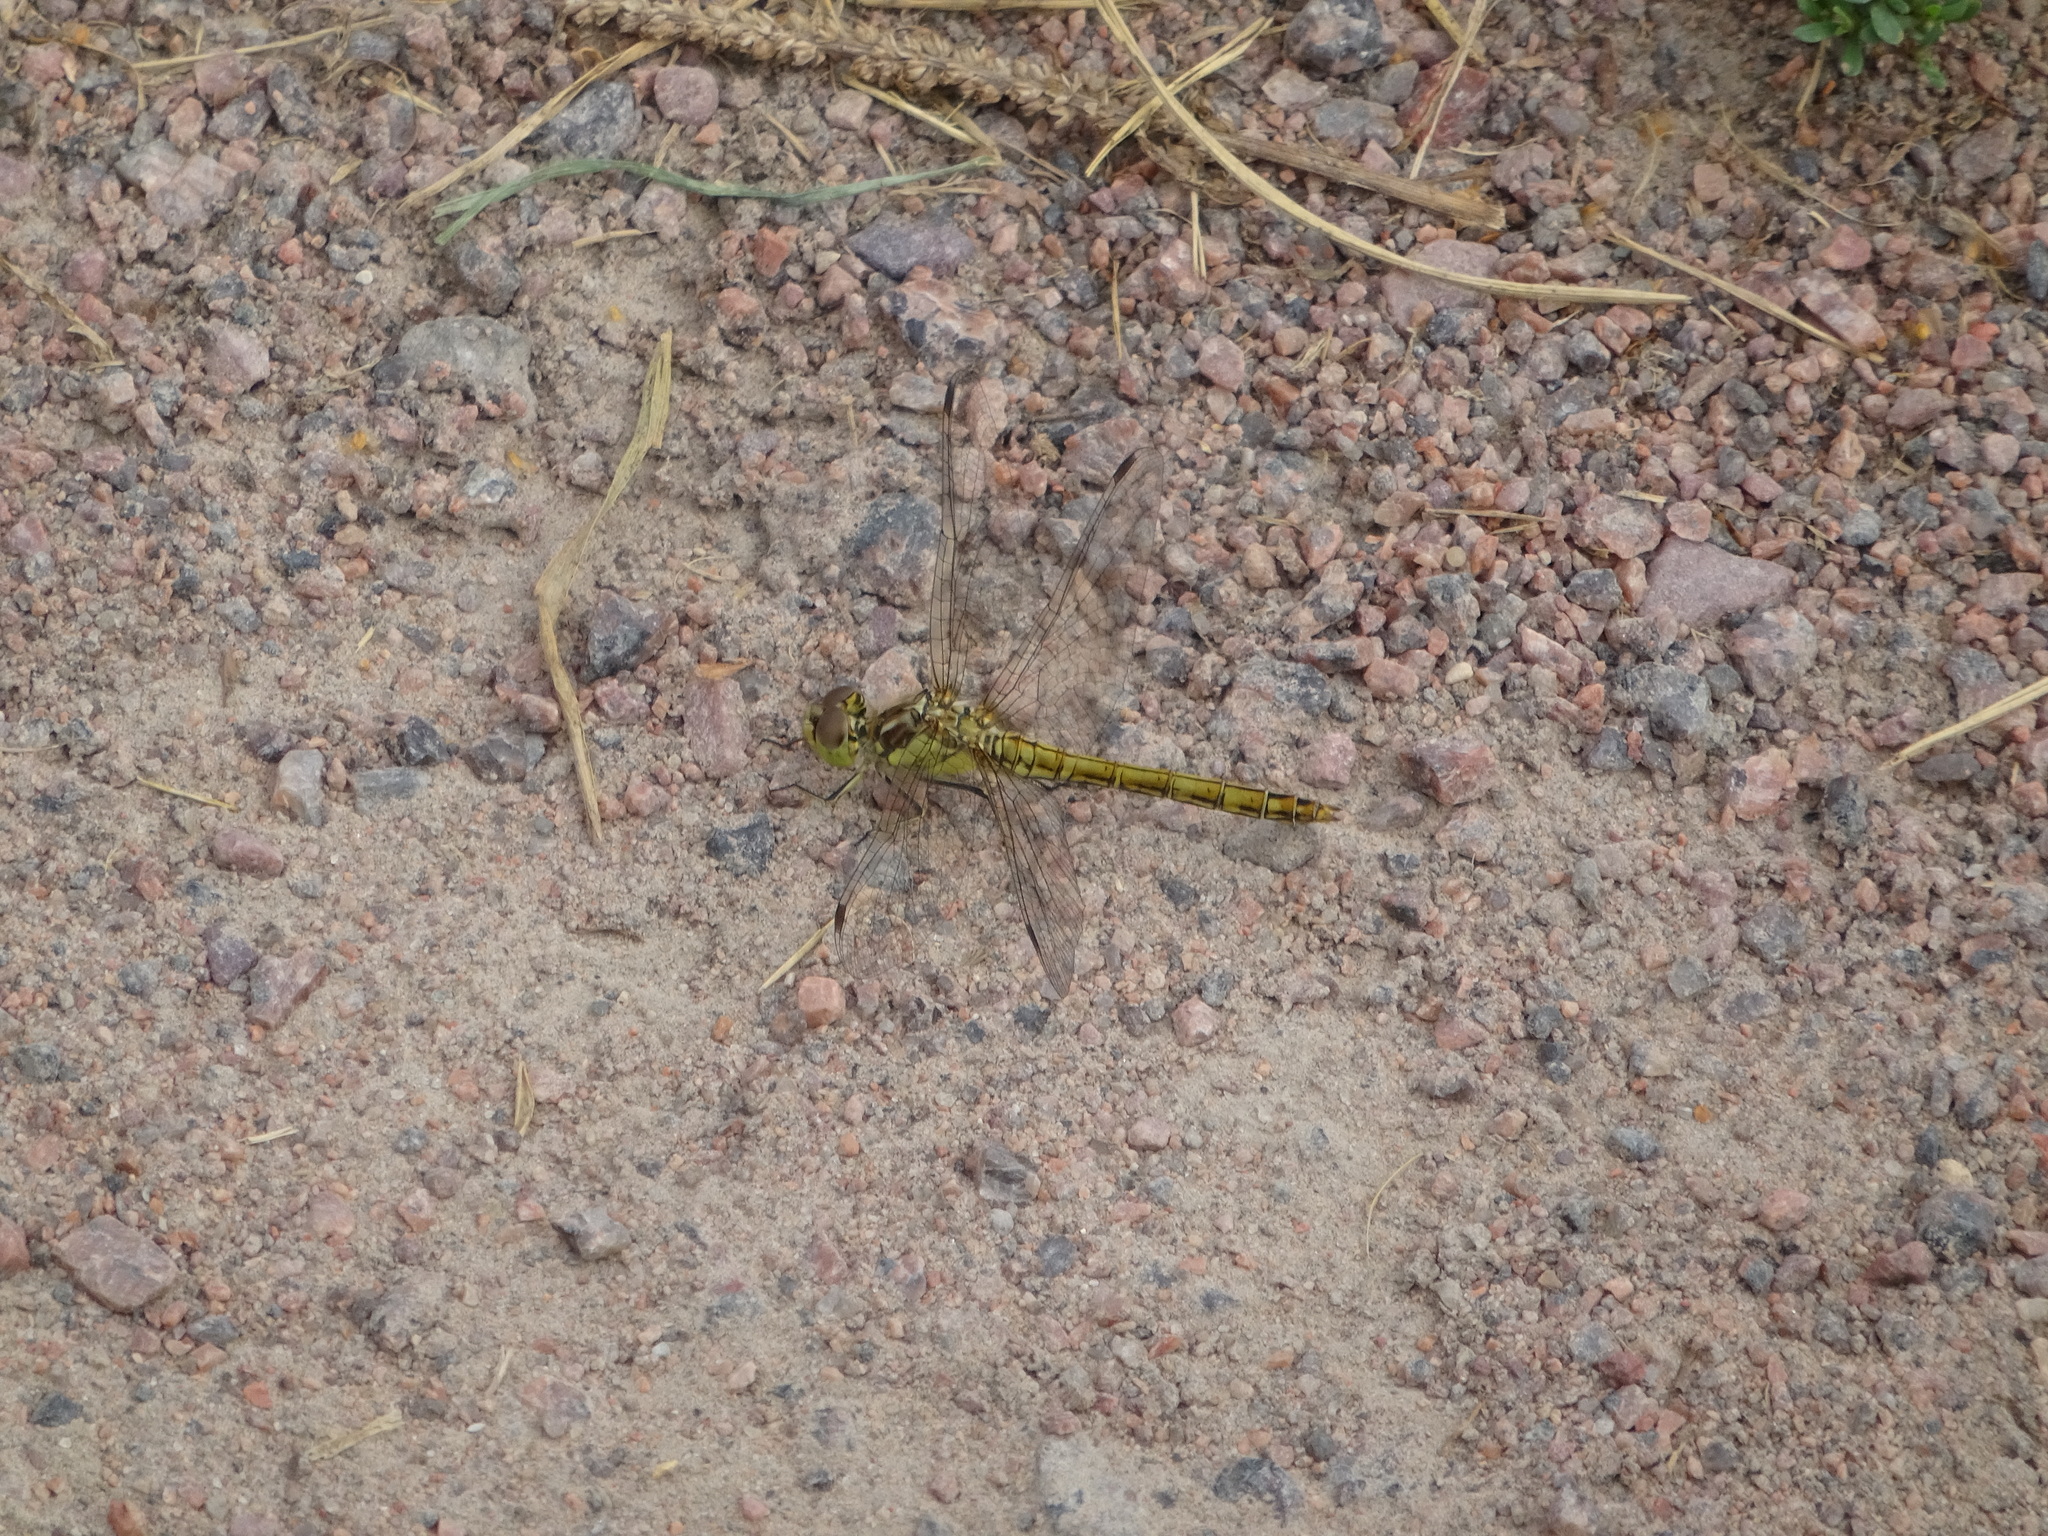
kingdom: Animalia
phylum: Arthropoda
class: Insecta
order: Odonata
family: Libellulidae
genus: Sympetrum
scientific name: Sympetrum vulgatum
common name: Vagrant darter
